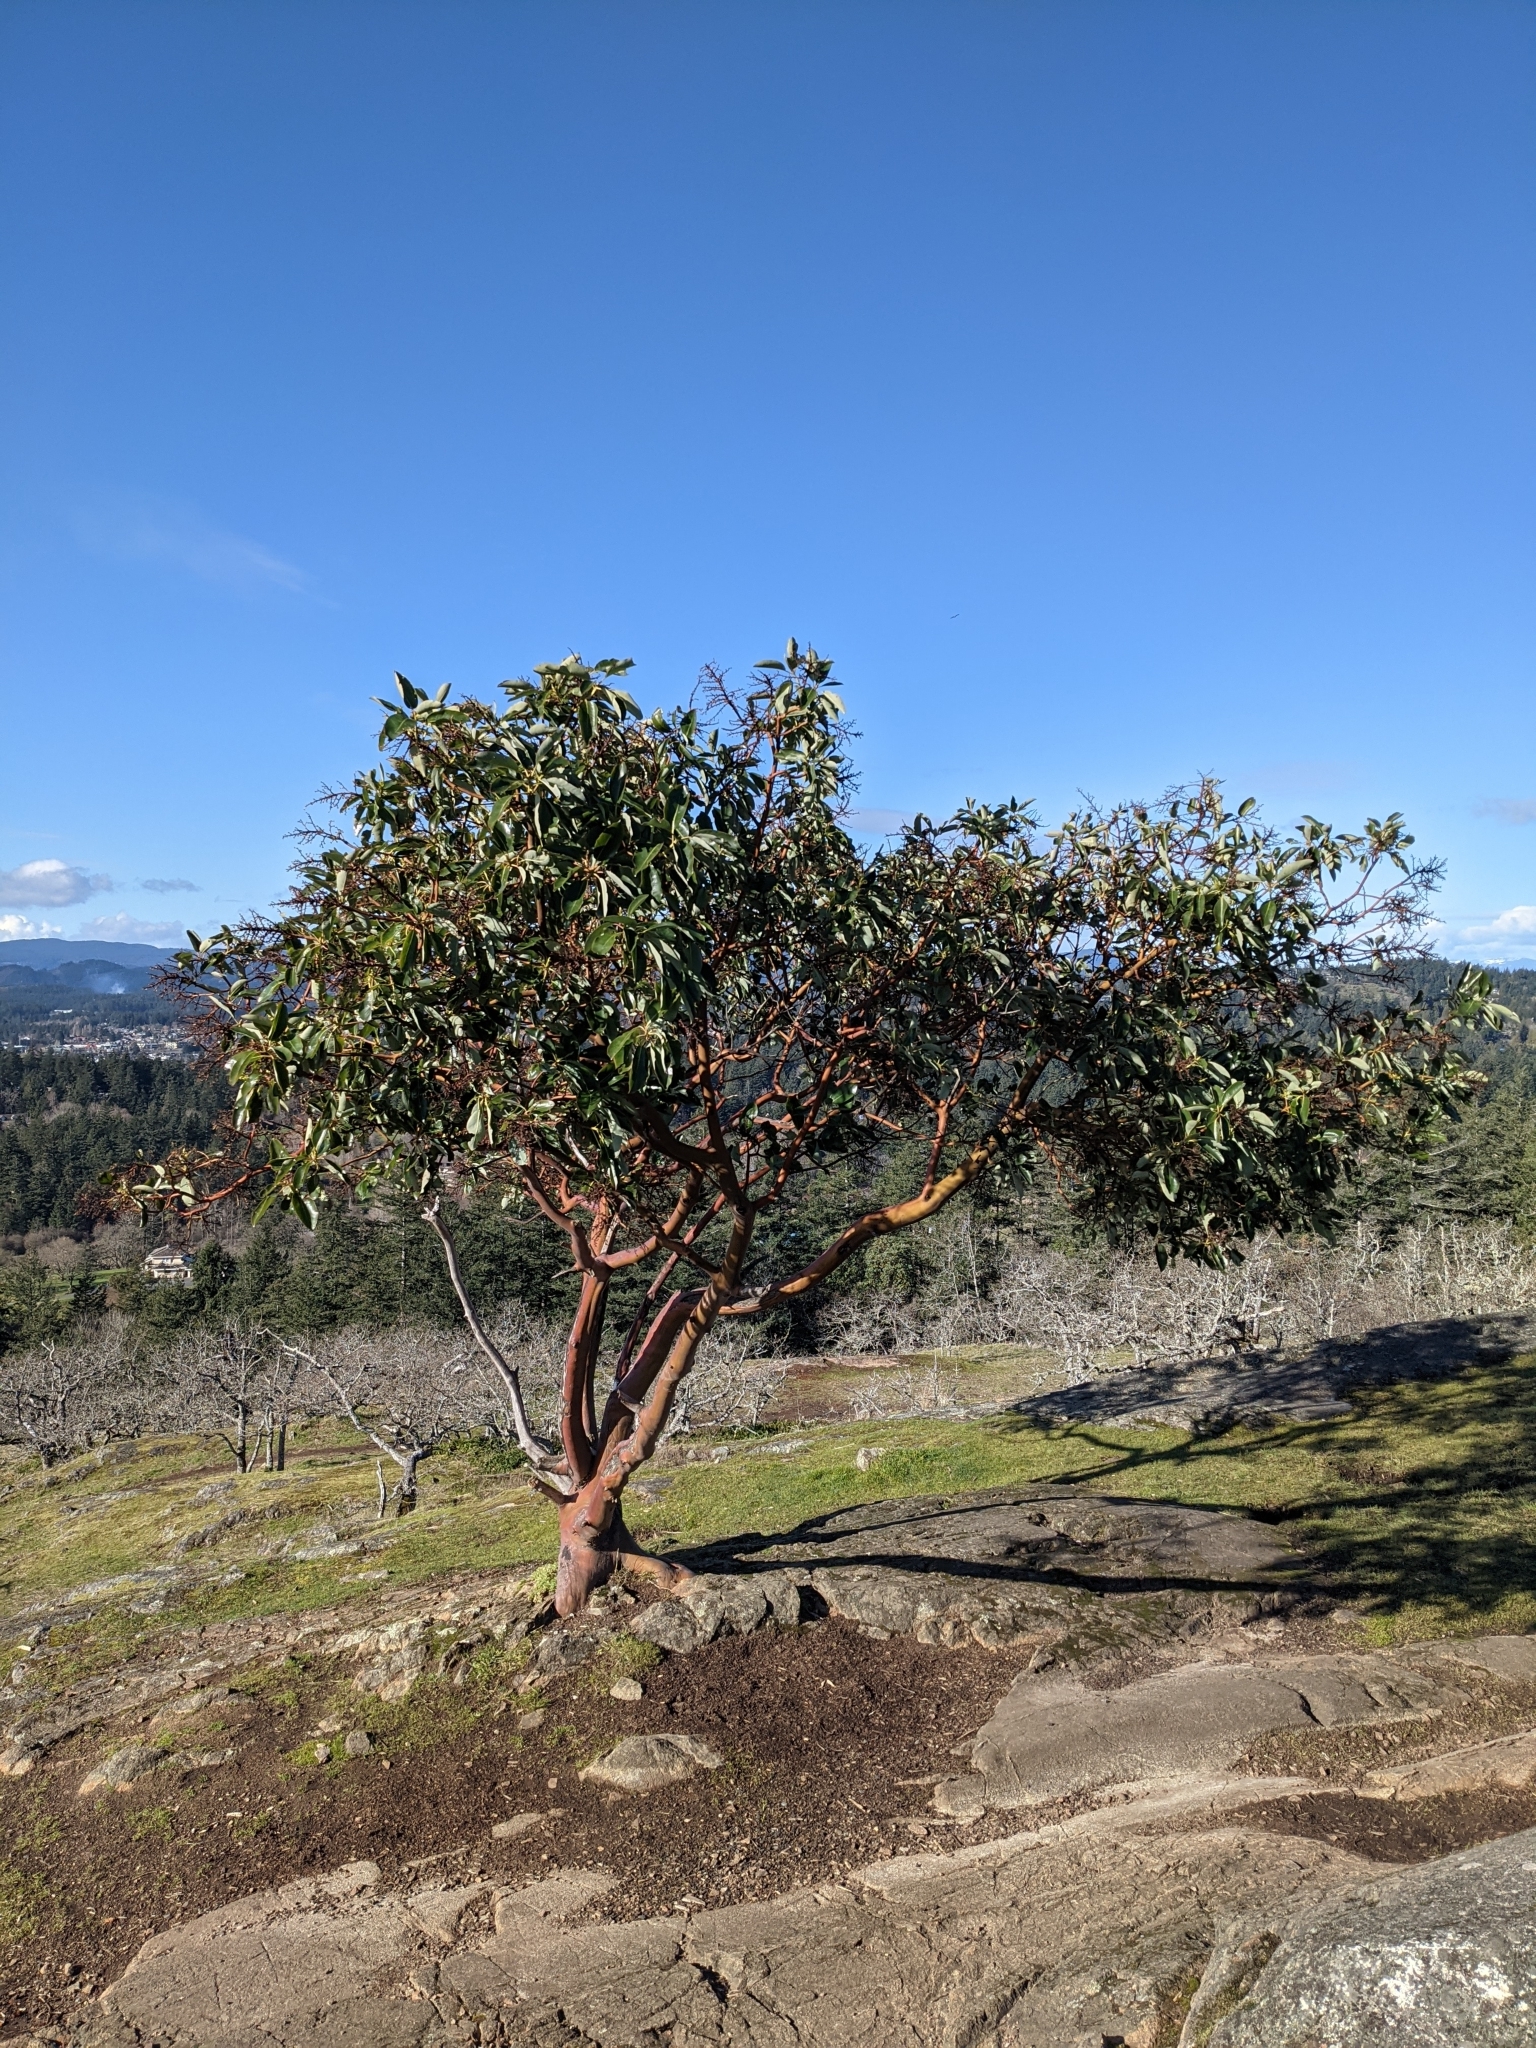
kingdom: Plantae
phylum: Tracheophyta
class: Magnoliopsida
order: Ericales
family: Ericaceae
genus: Arbutus
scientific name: Arbutus menziesii
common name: Pacific madrone
